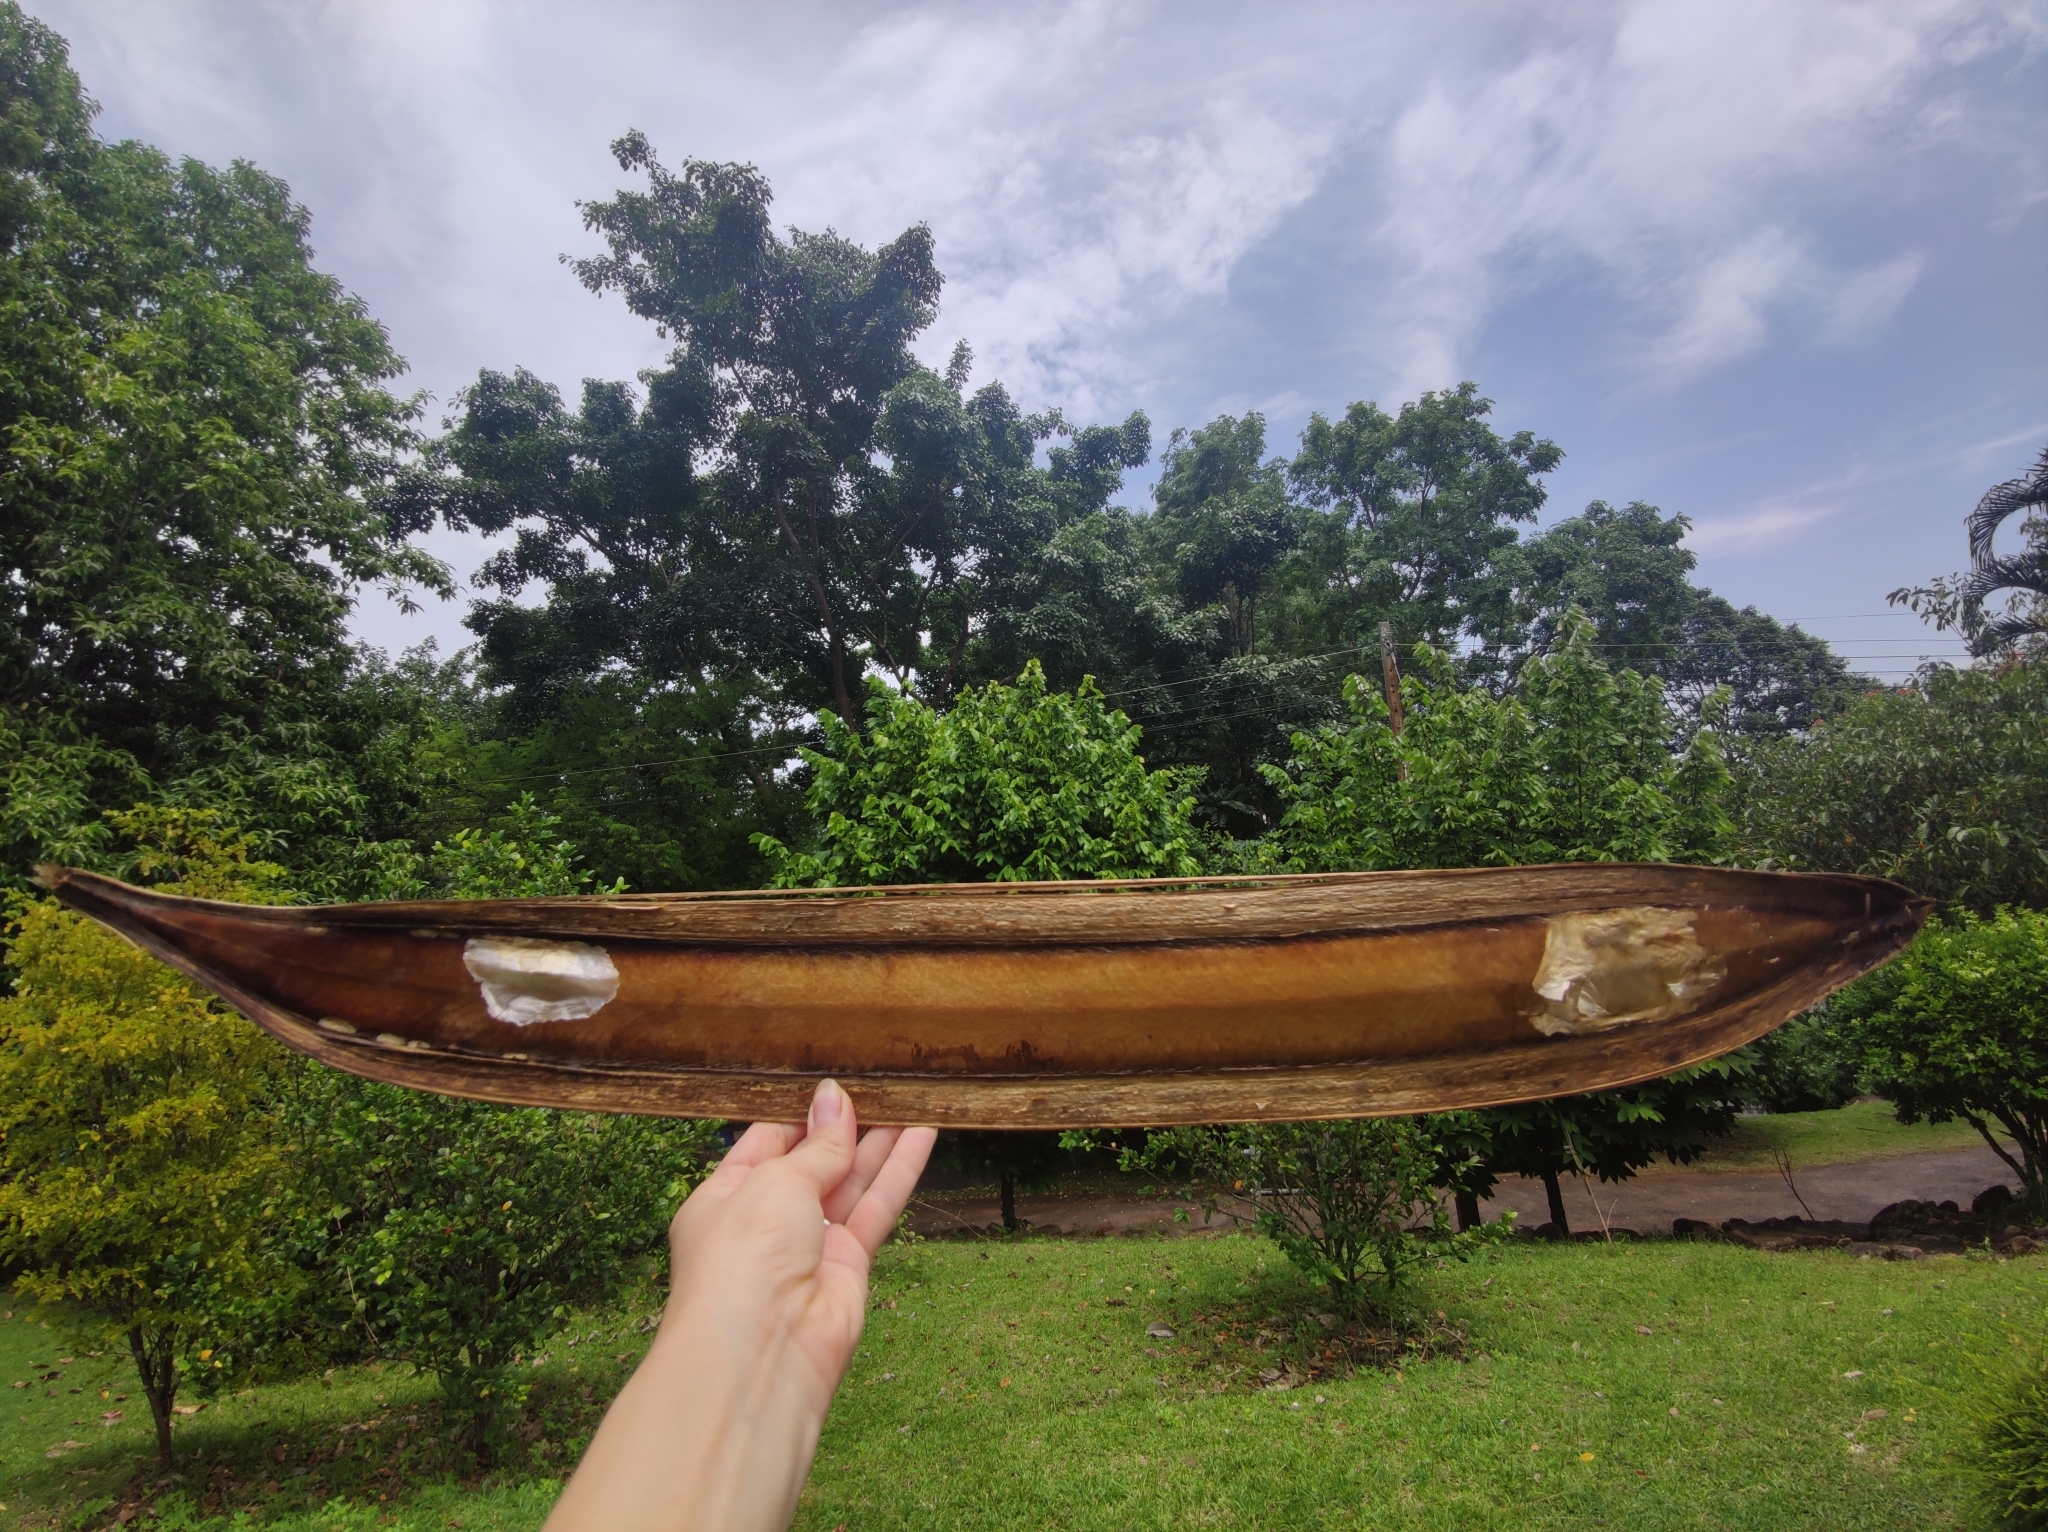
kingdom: Plantae
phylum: Tracheophyta
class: Magnoliopsida
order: Lamiales
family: Bignoniaceae
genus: Oroxylum
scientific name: Oroxylum indicum
